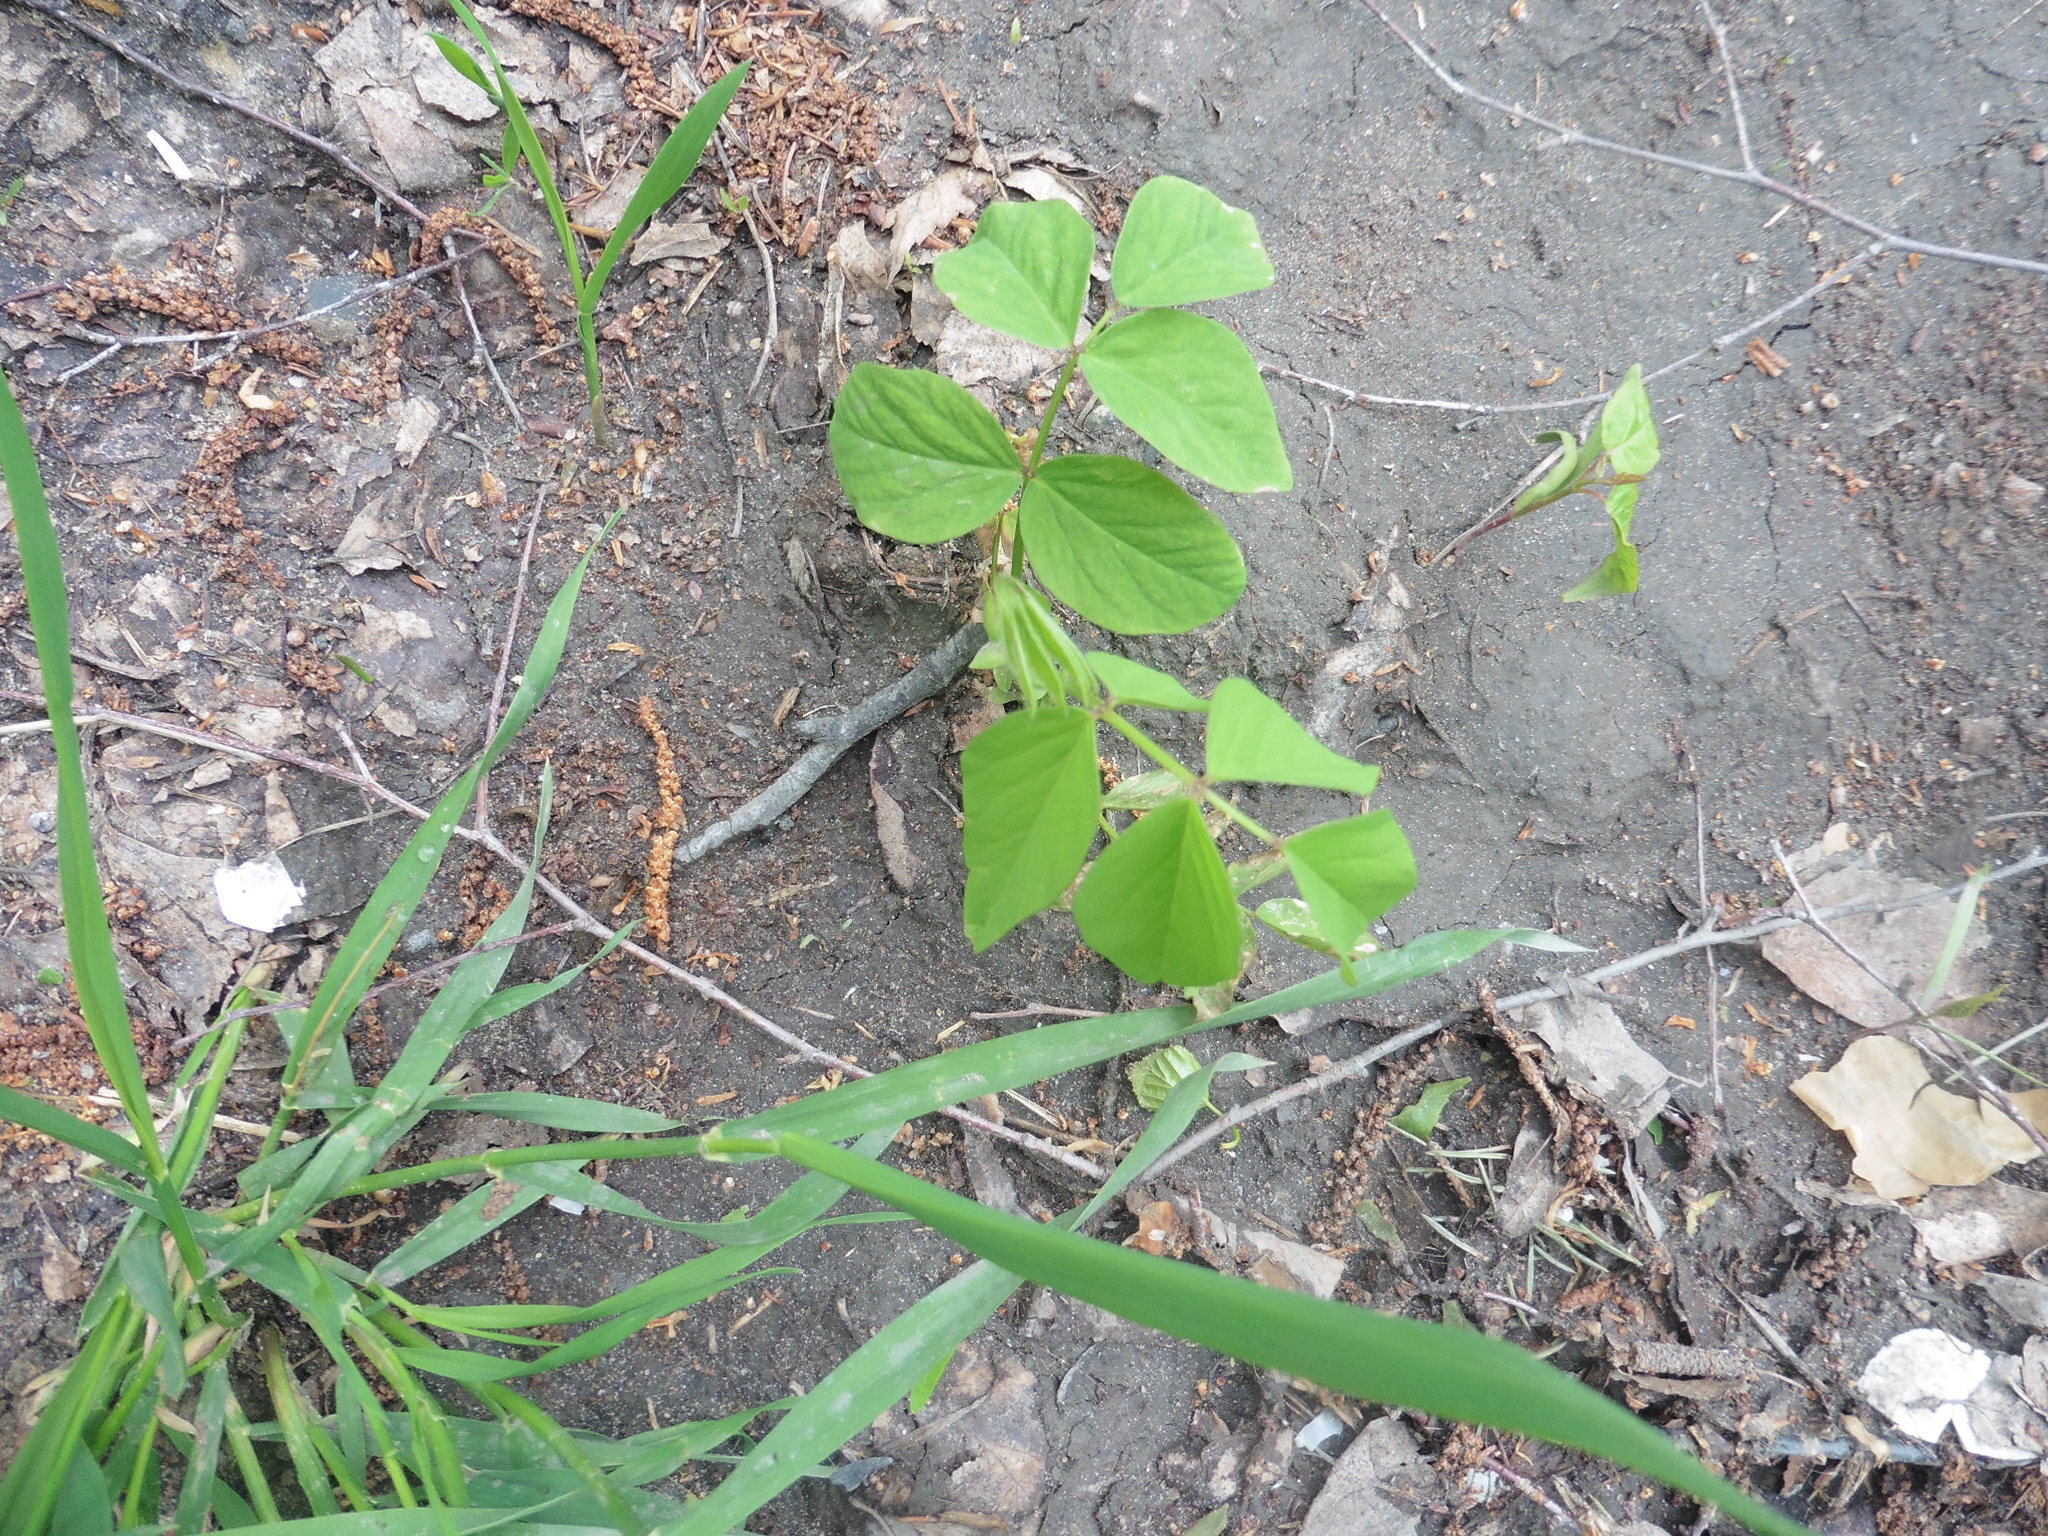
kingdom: Plantae
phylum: Tracheophyta
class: Magnoliopsida
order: Fabales
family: Fabaceae
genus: Astragalus
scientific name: Astragalus glycyphyllos
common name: Wild liquorice
